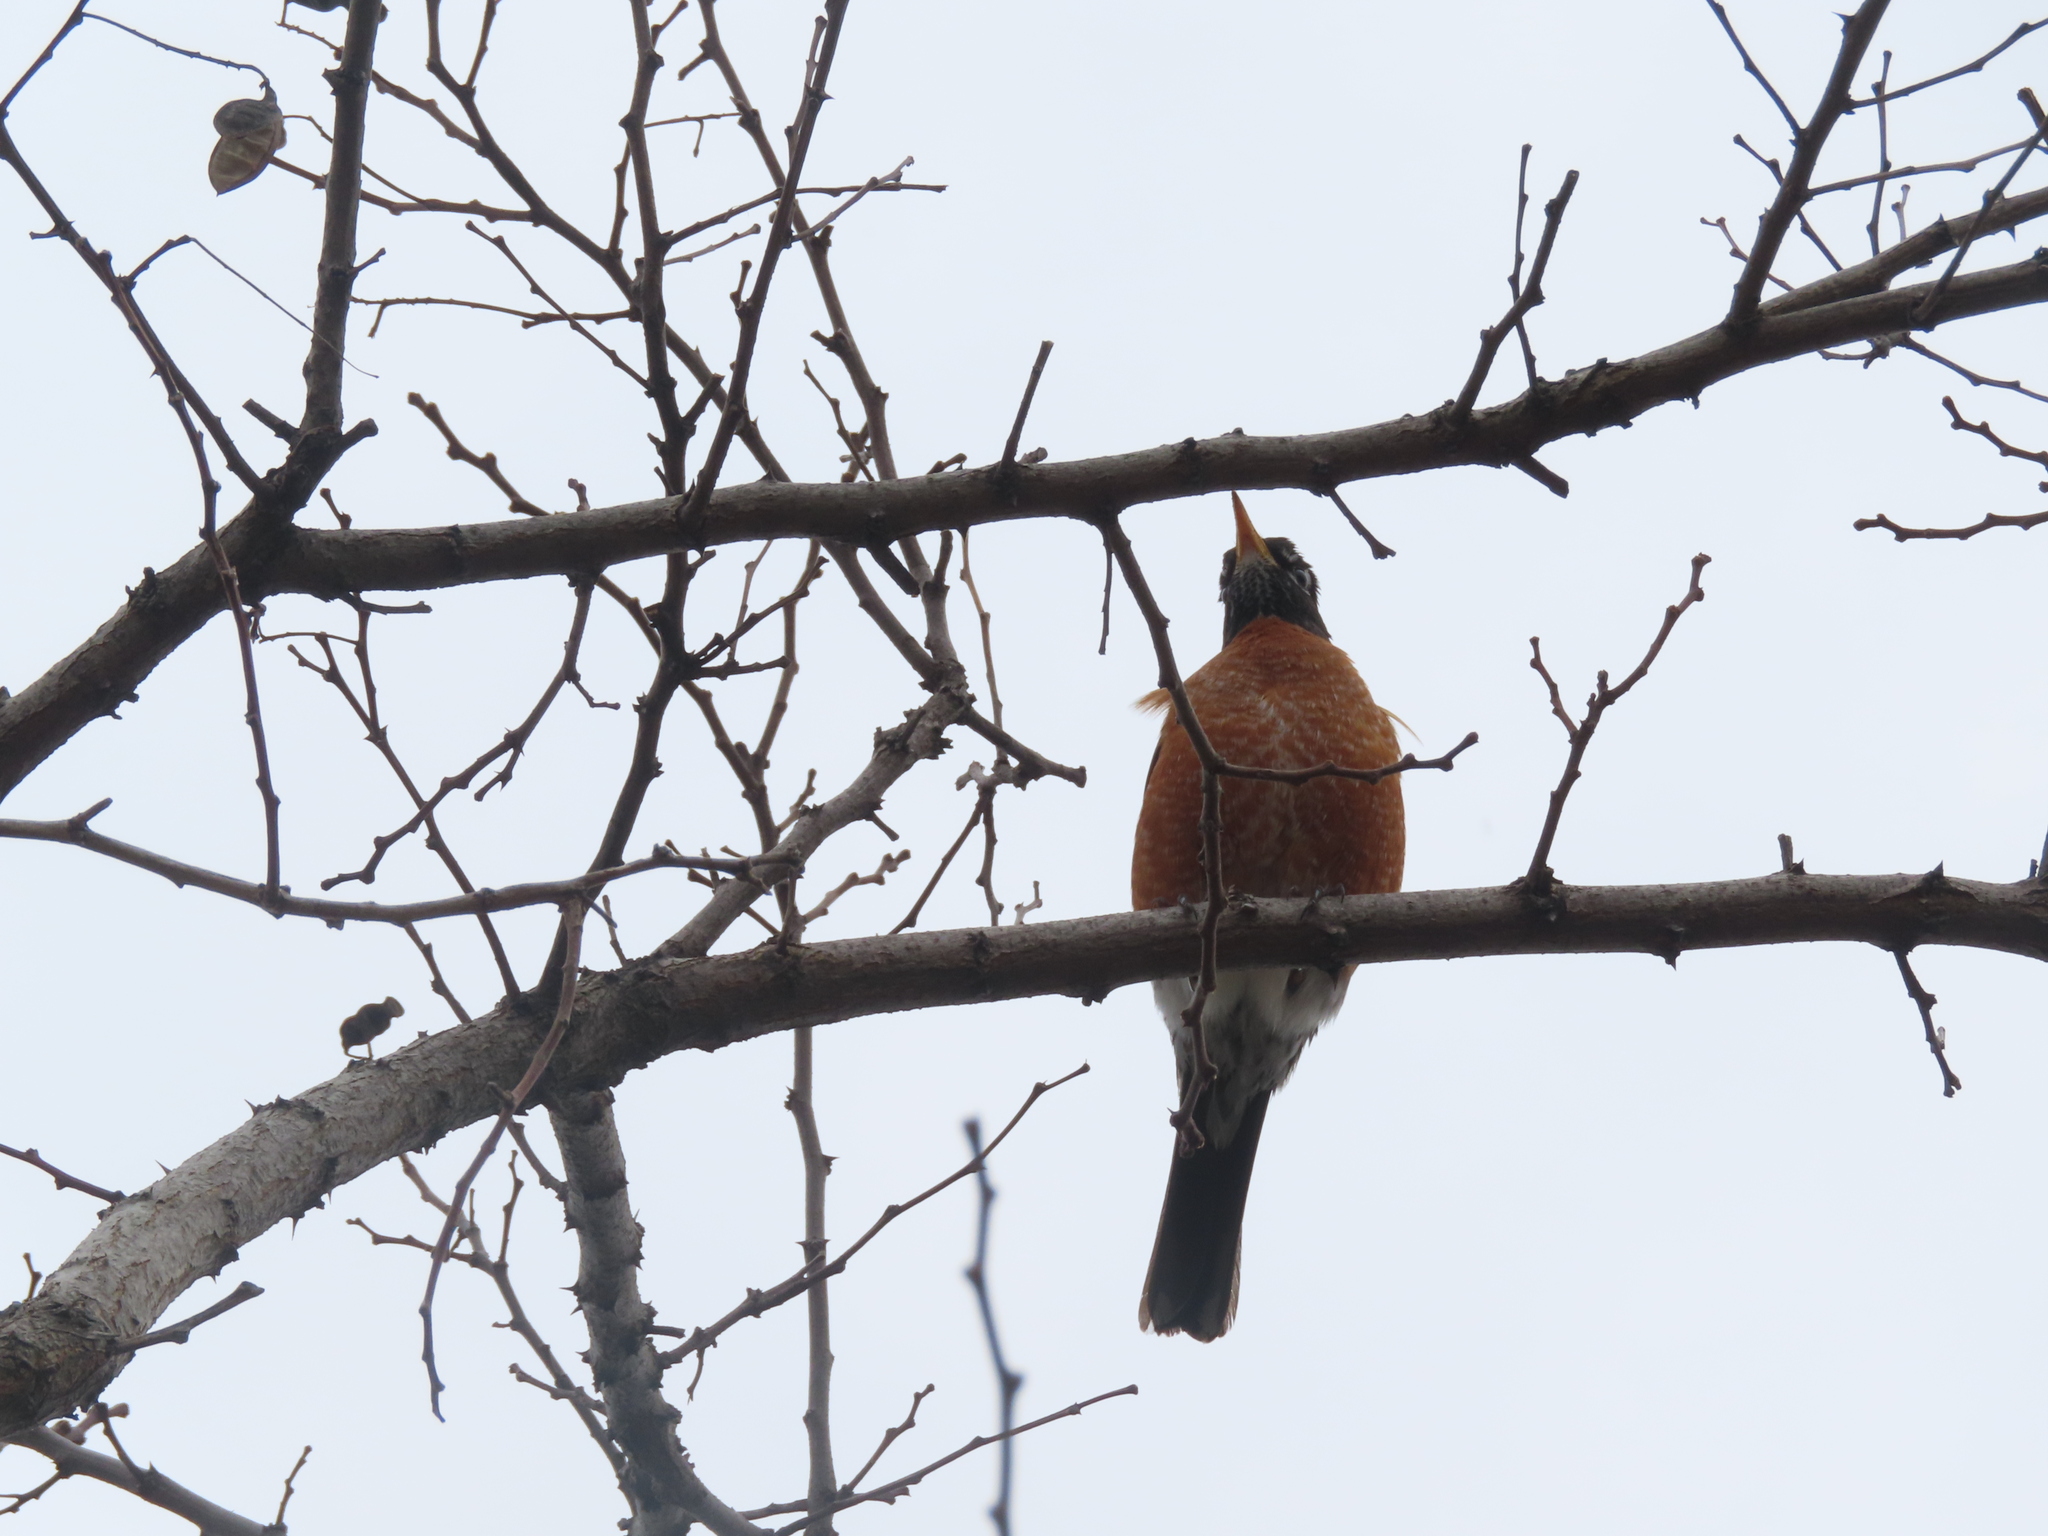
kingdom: Animalia
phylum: Chordata
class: Aves
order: Passeriformes
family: Turdidae
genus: Turdus
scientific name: Turdus migratorius
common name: American robin
